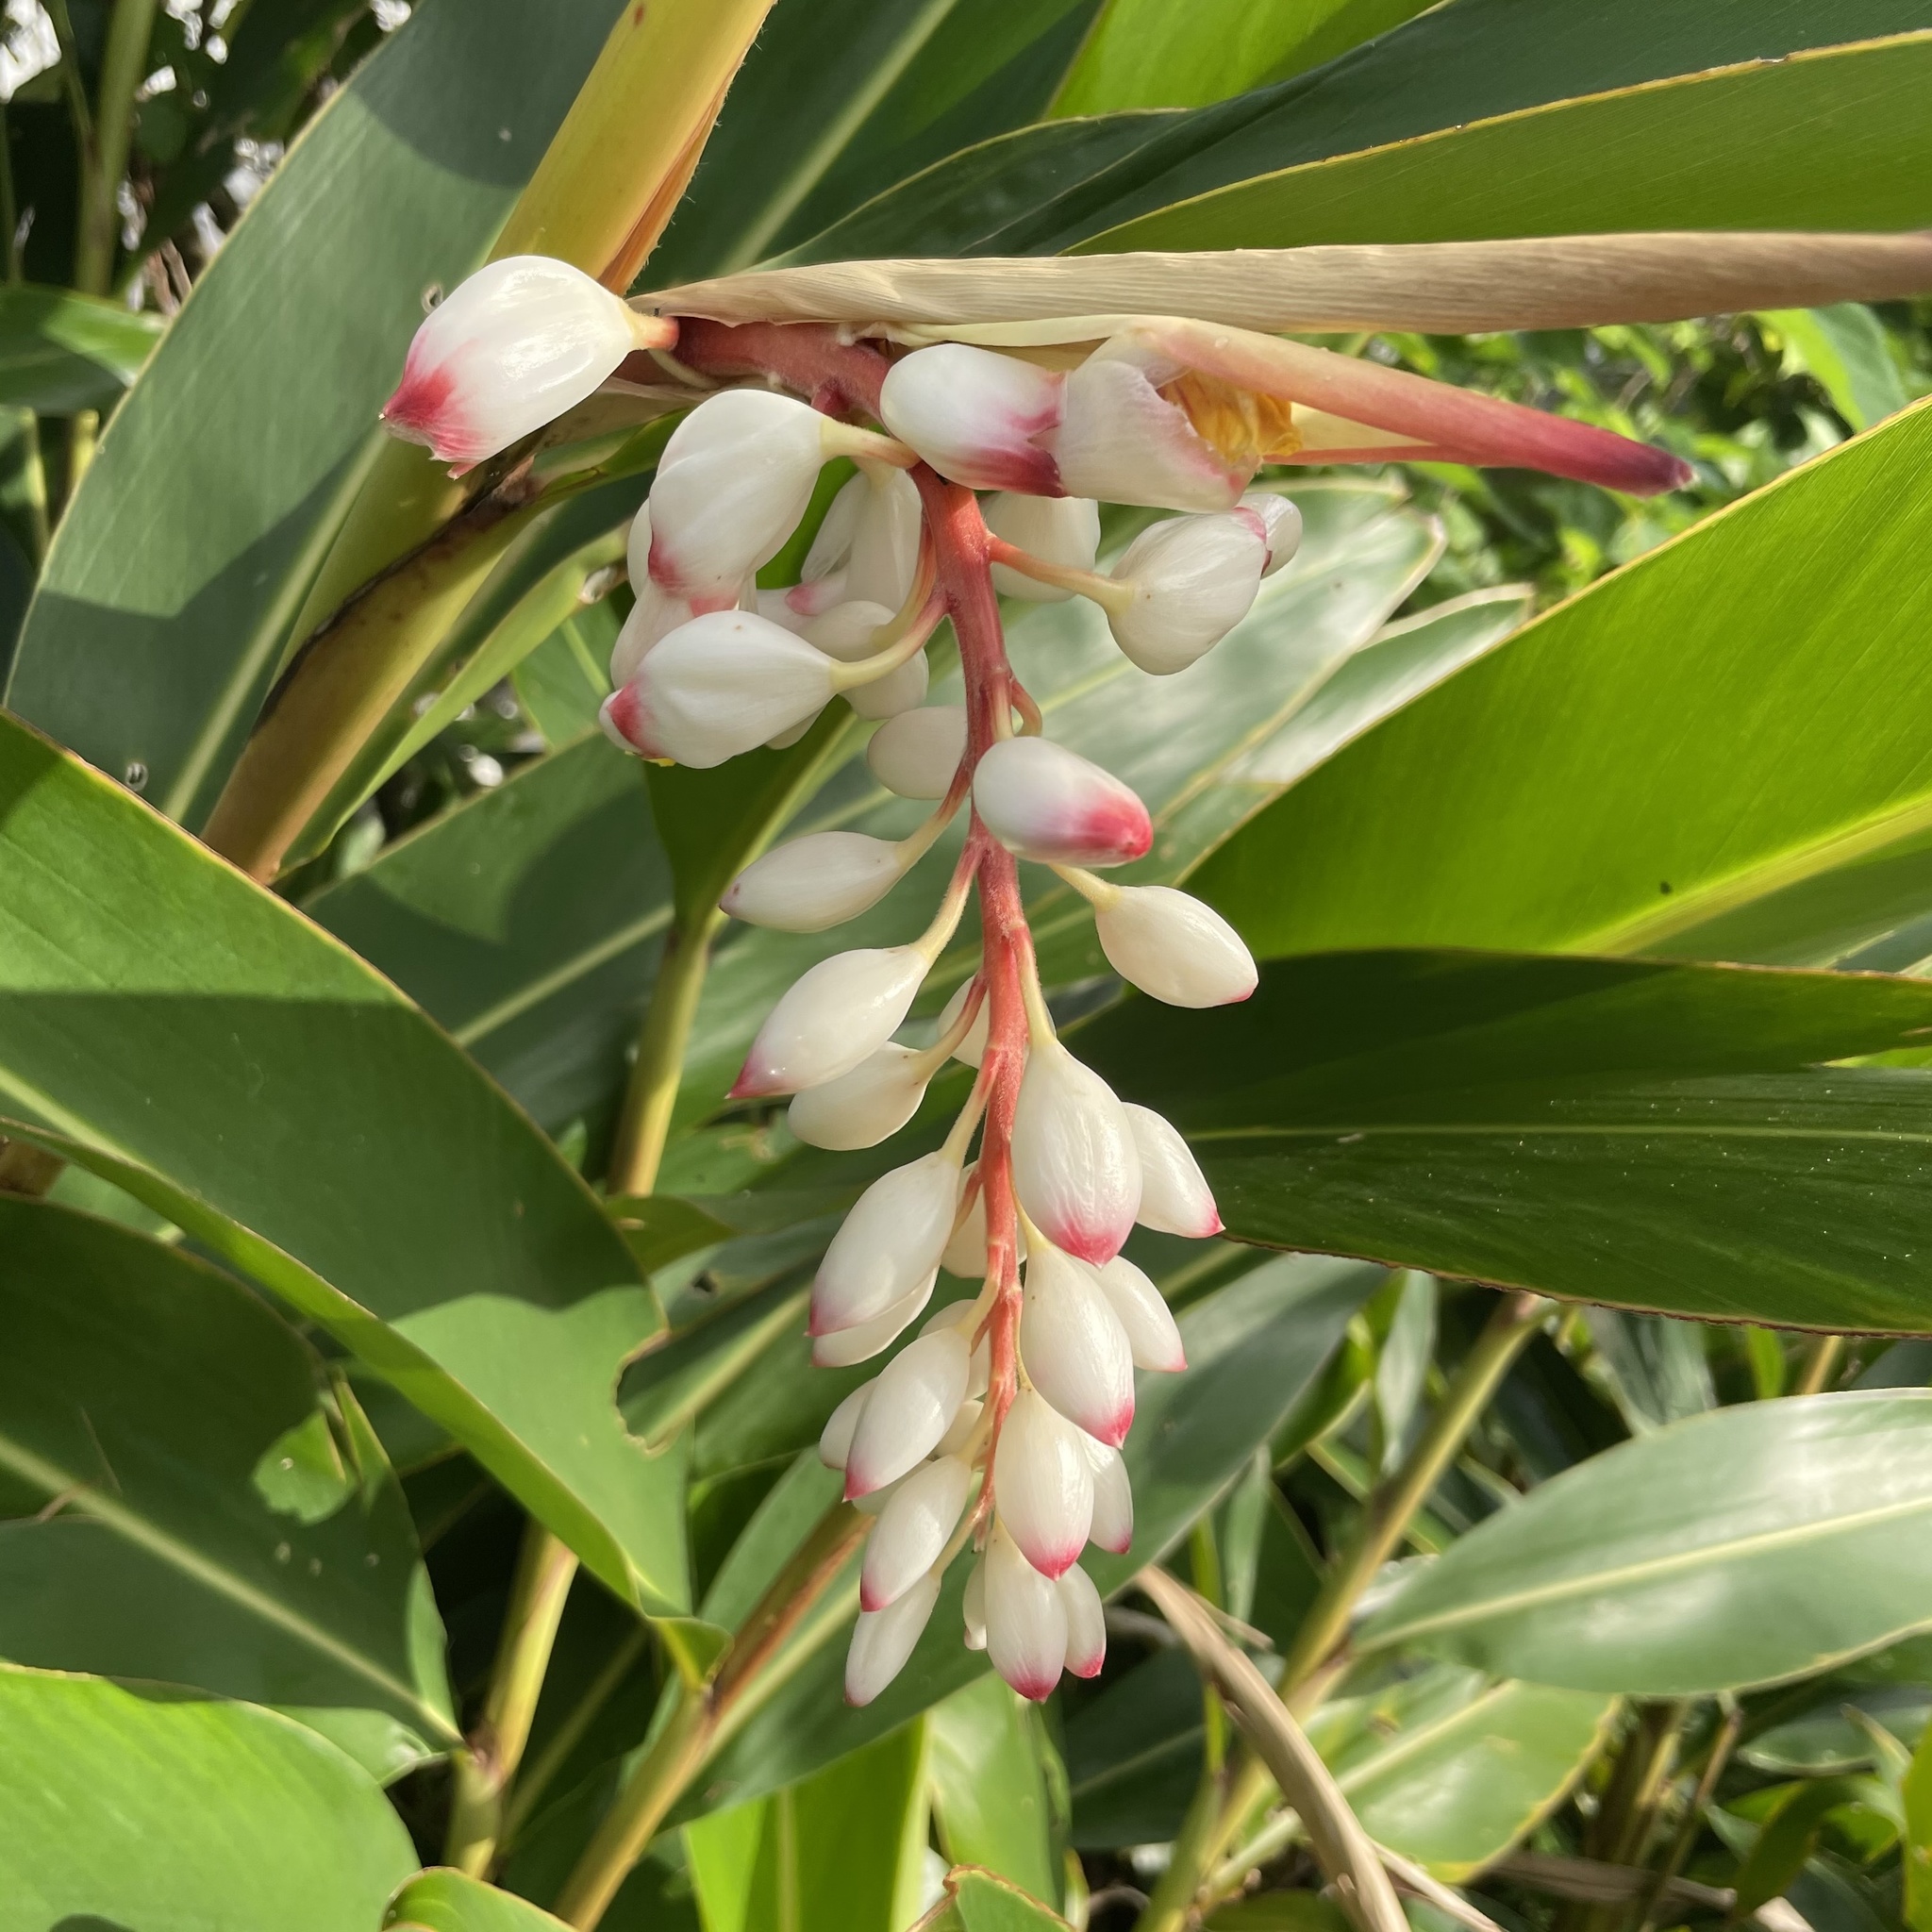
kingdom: Plantae
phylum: Tracheophyta
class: Liliopsida
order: Zingiberales
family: Zingiberaceae
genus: Alpinia
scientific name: Alpinia zerumbet
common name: Shellplant
